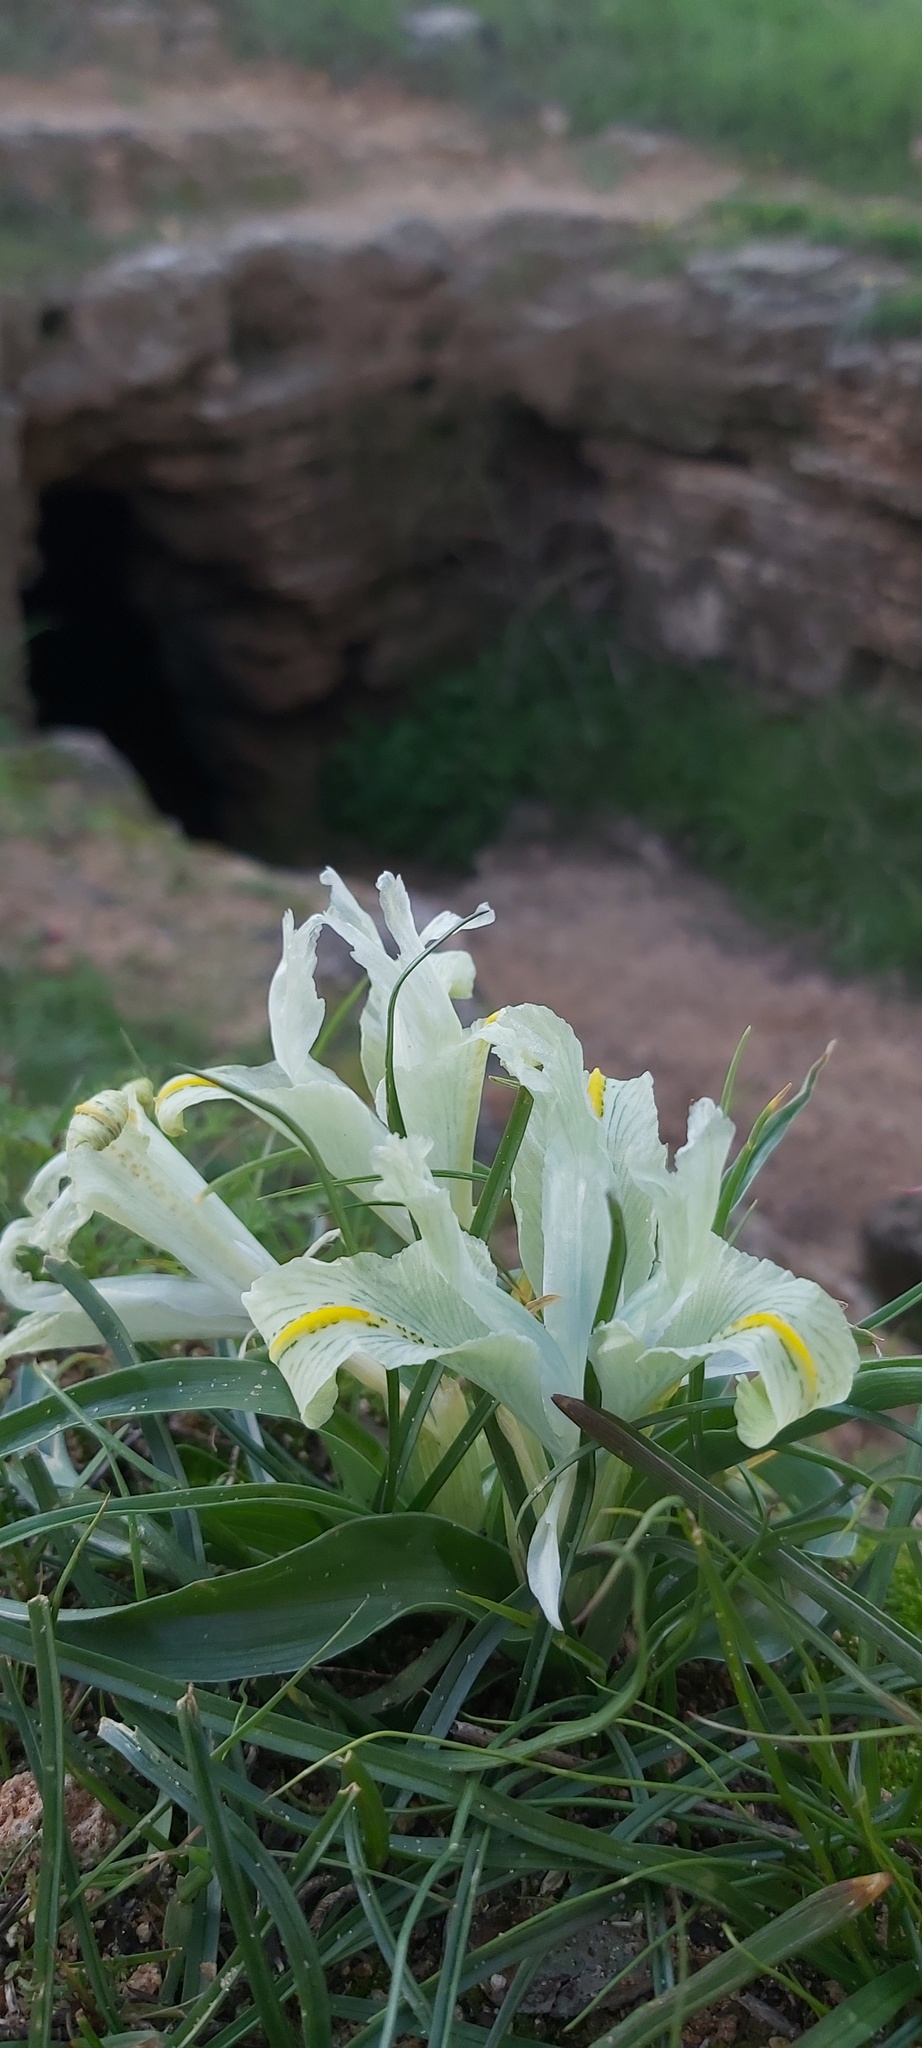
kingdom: Plantae
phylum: Tracheophyta
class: Liliopsida
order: Asparagales
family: Iridaceae
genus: Iris
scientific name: Iris palaestina
